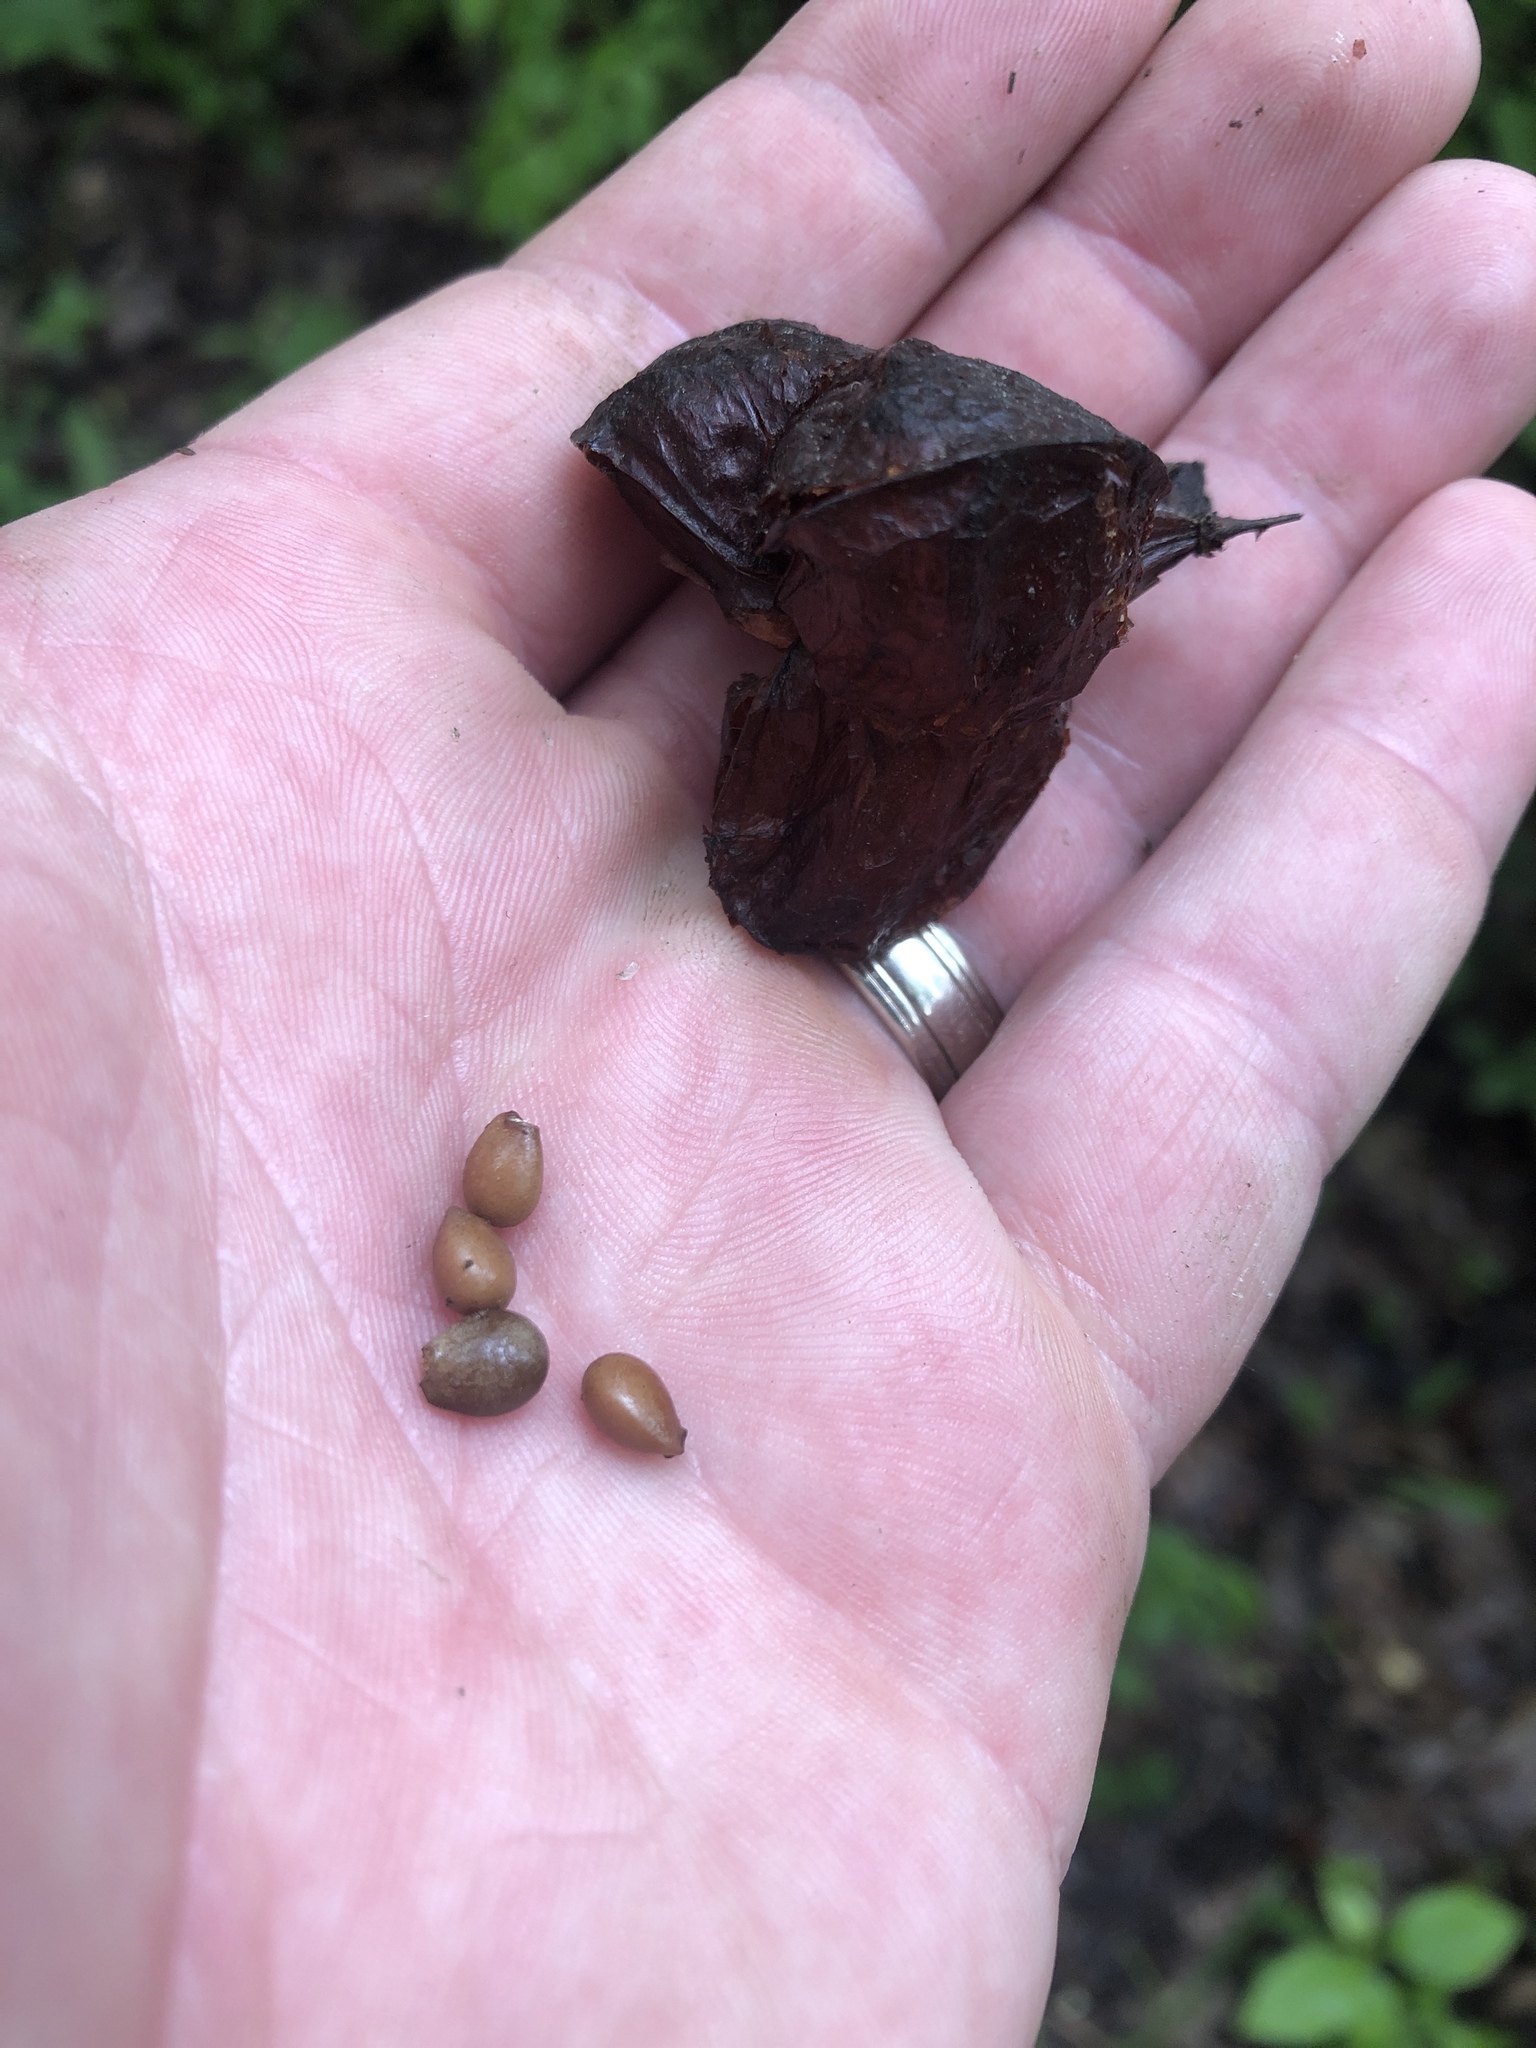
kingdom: Plantae
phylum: Tracheophyta
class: Magnoliopsida
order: Crossosomatales
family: Staphyleaceae
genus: Staphylea
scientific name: Staphylea trifolia
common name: American bladdernut
